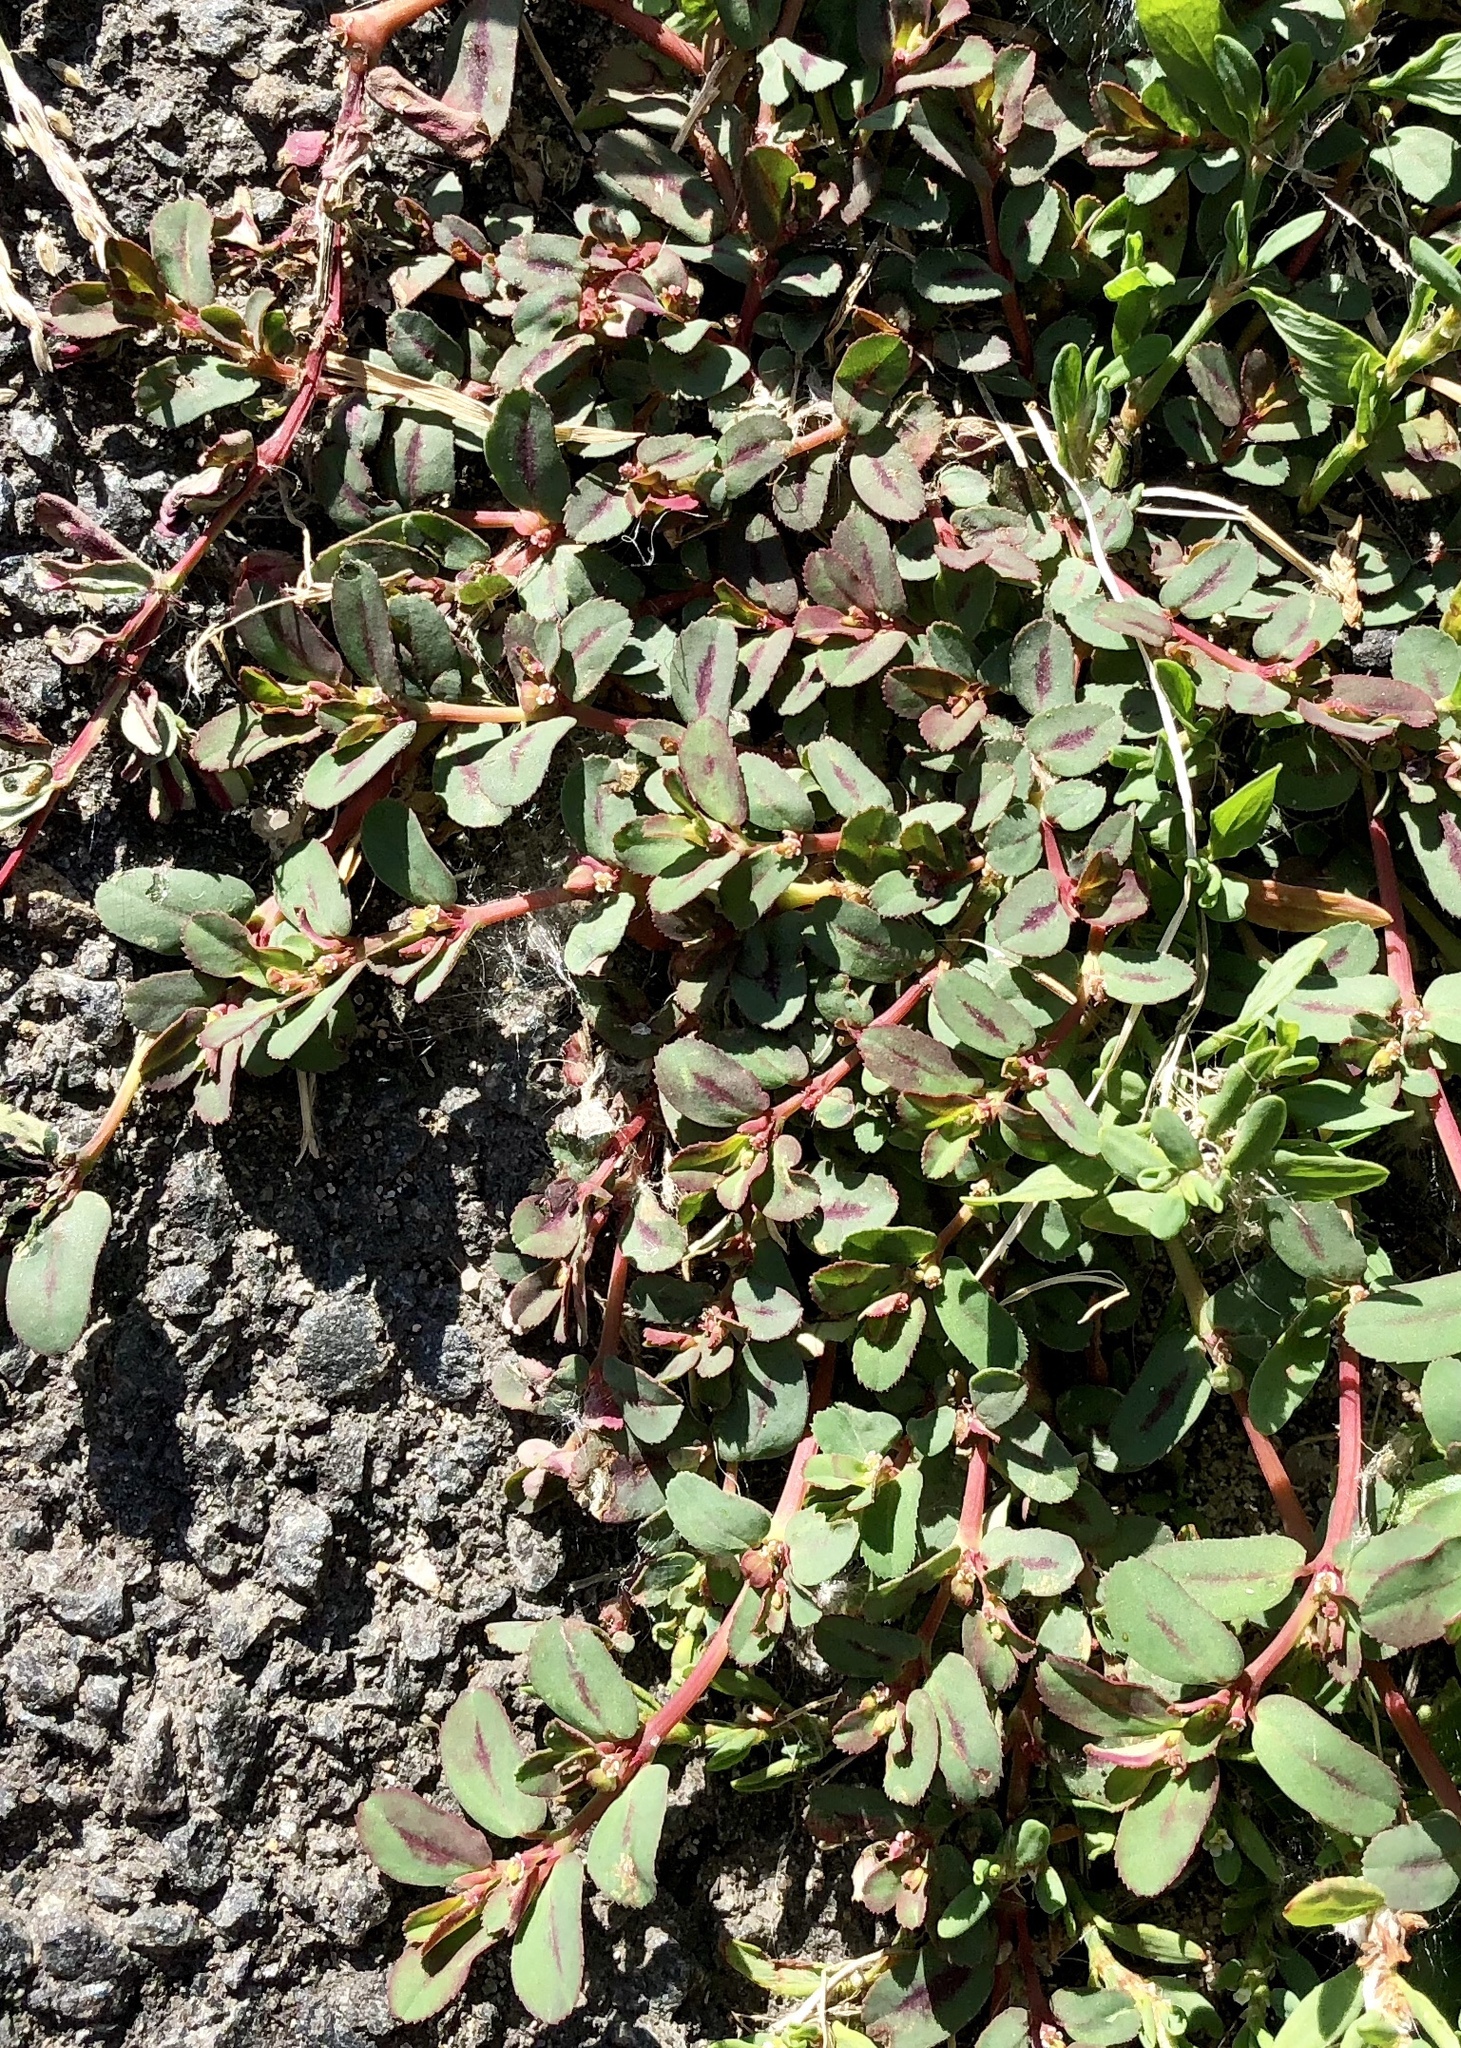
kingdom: Plantae
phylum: Tracheophyta
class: Magnoliopsida
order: Malpighiales
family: Euphorbiaceae
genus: Euphorbia
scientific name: Euphorbia serpillifolia
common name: Thyme-leaf spurge
